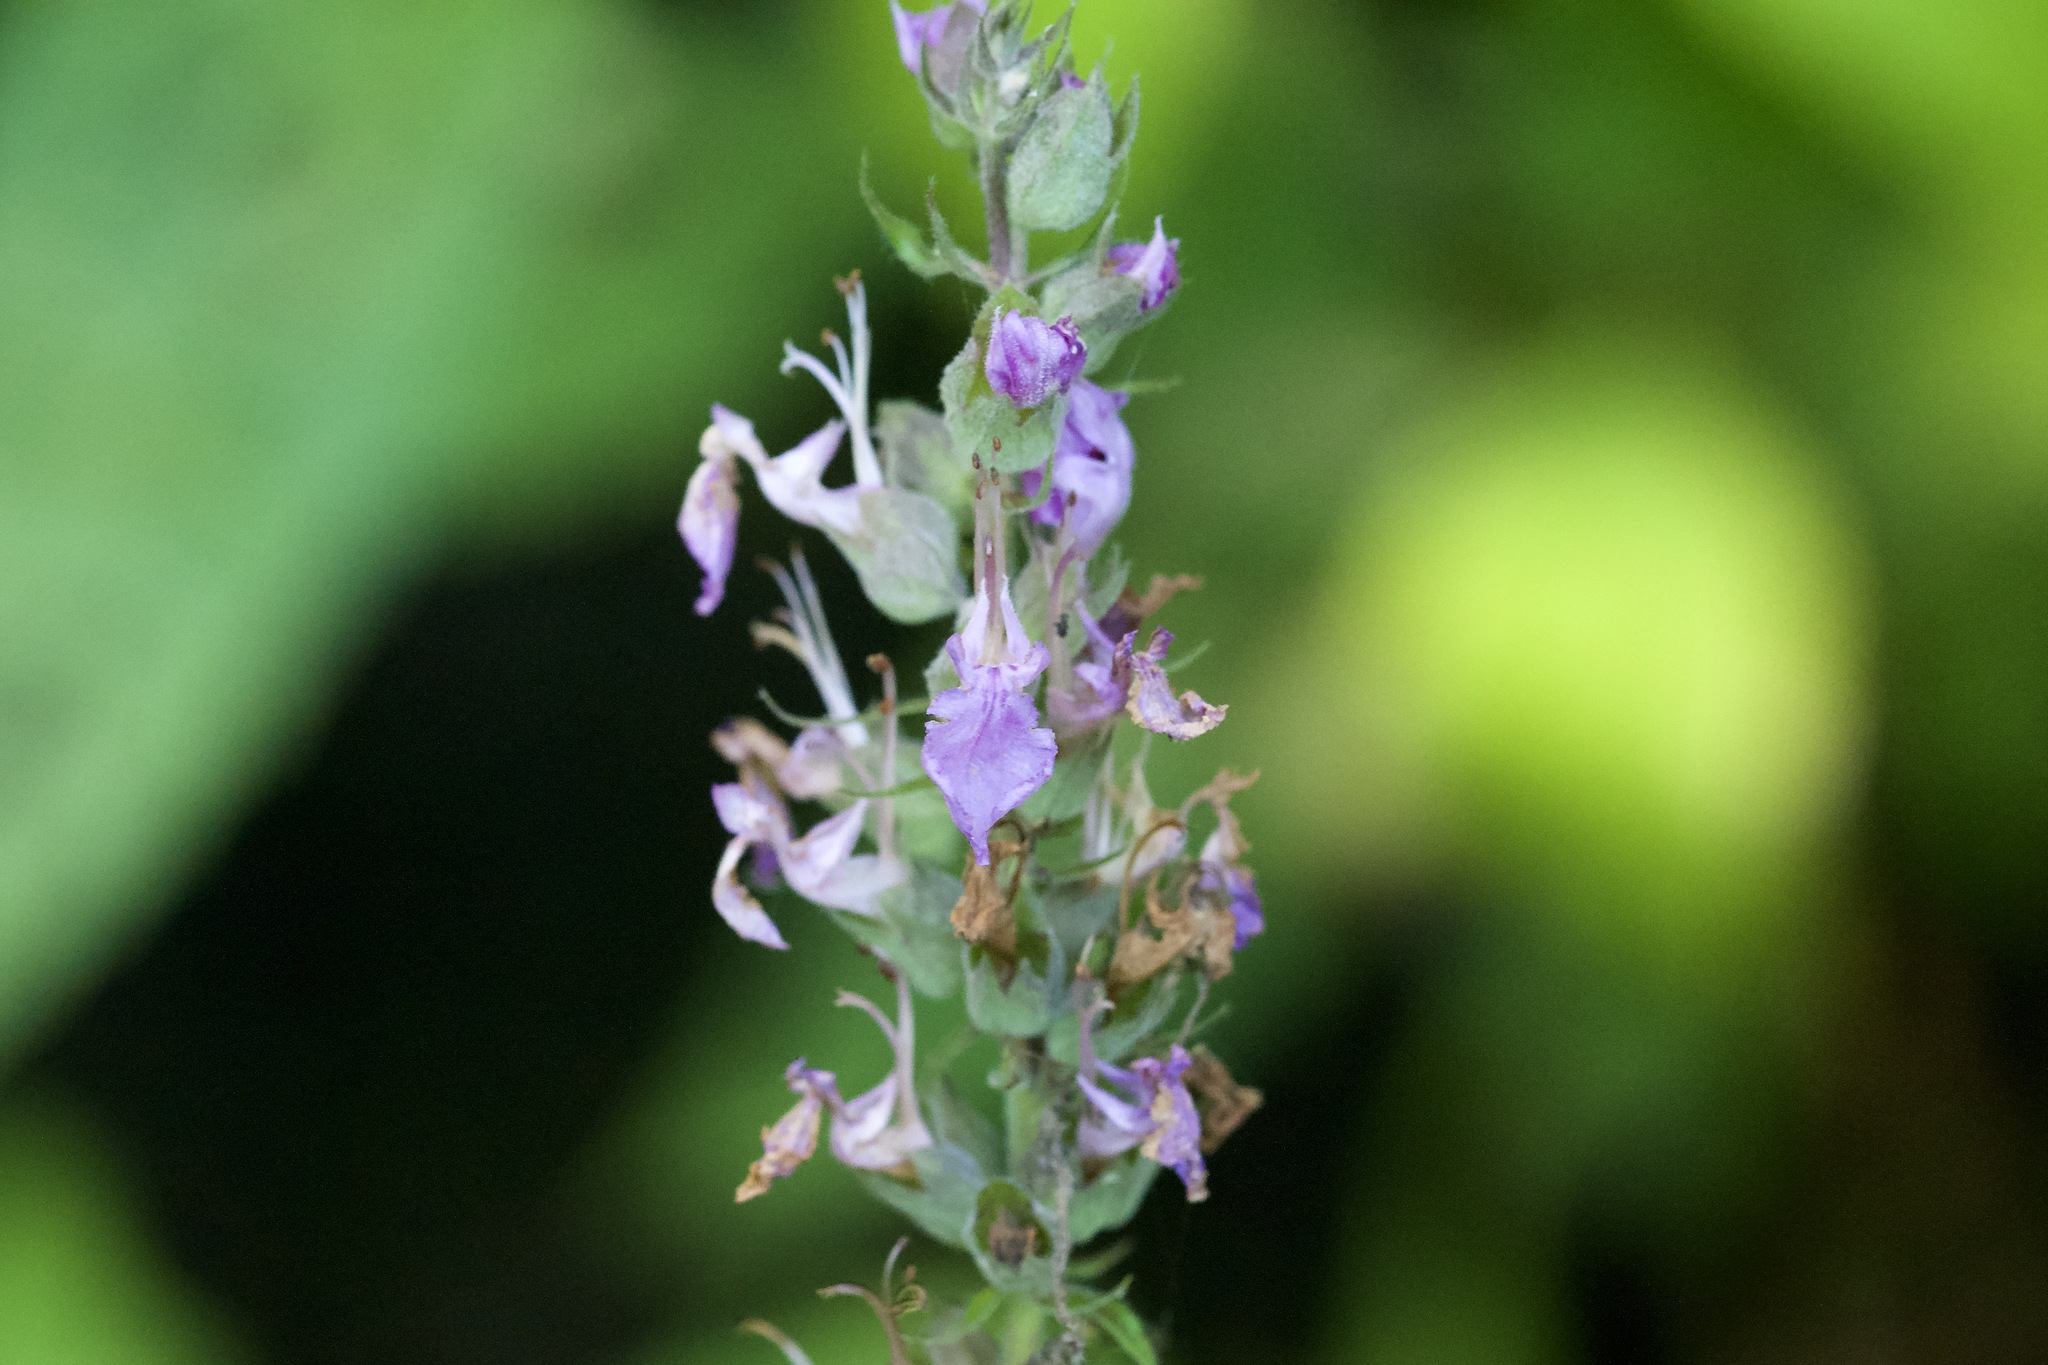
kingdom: Plantae
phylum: Tracheophyta
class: Magnoliopsida
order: Lamiales
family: Lamiaceae
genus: Teucrium
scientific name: Teucrium canadense
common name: American germander
